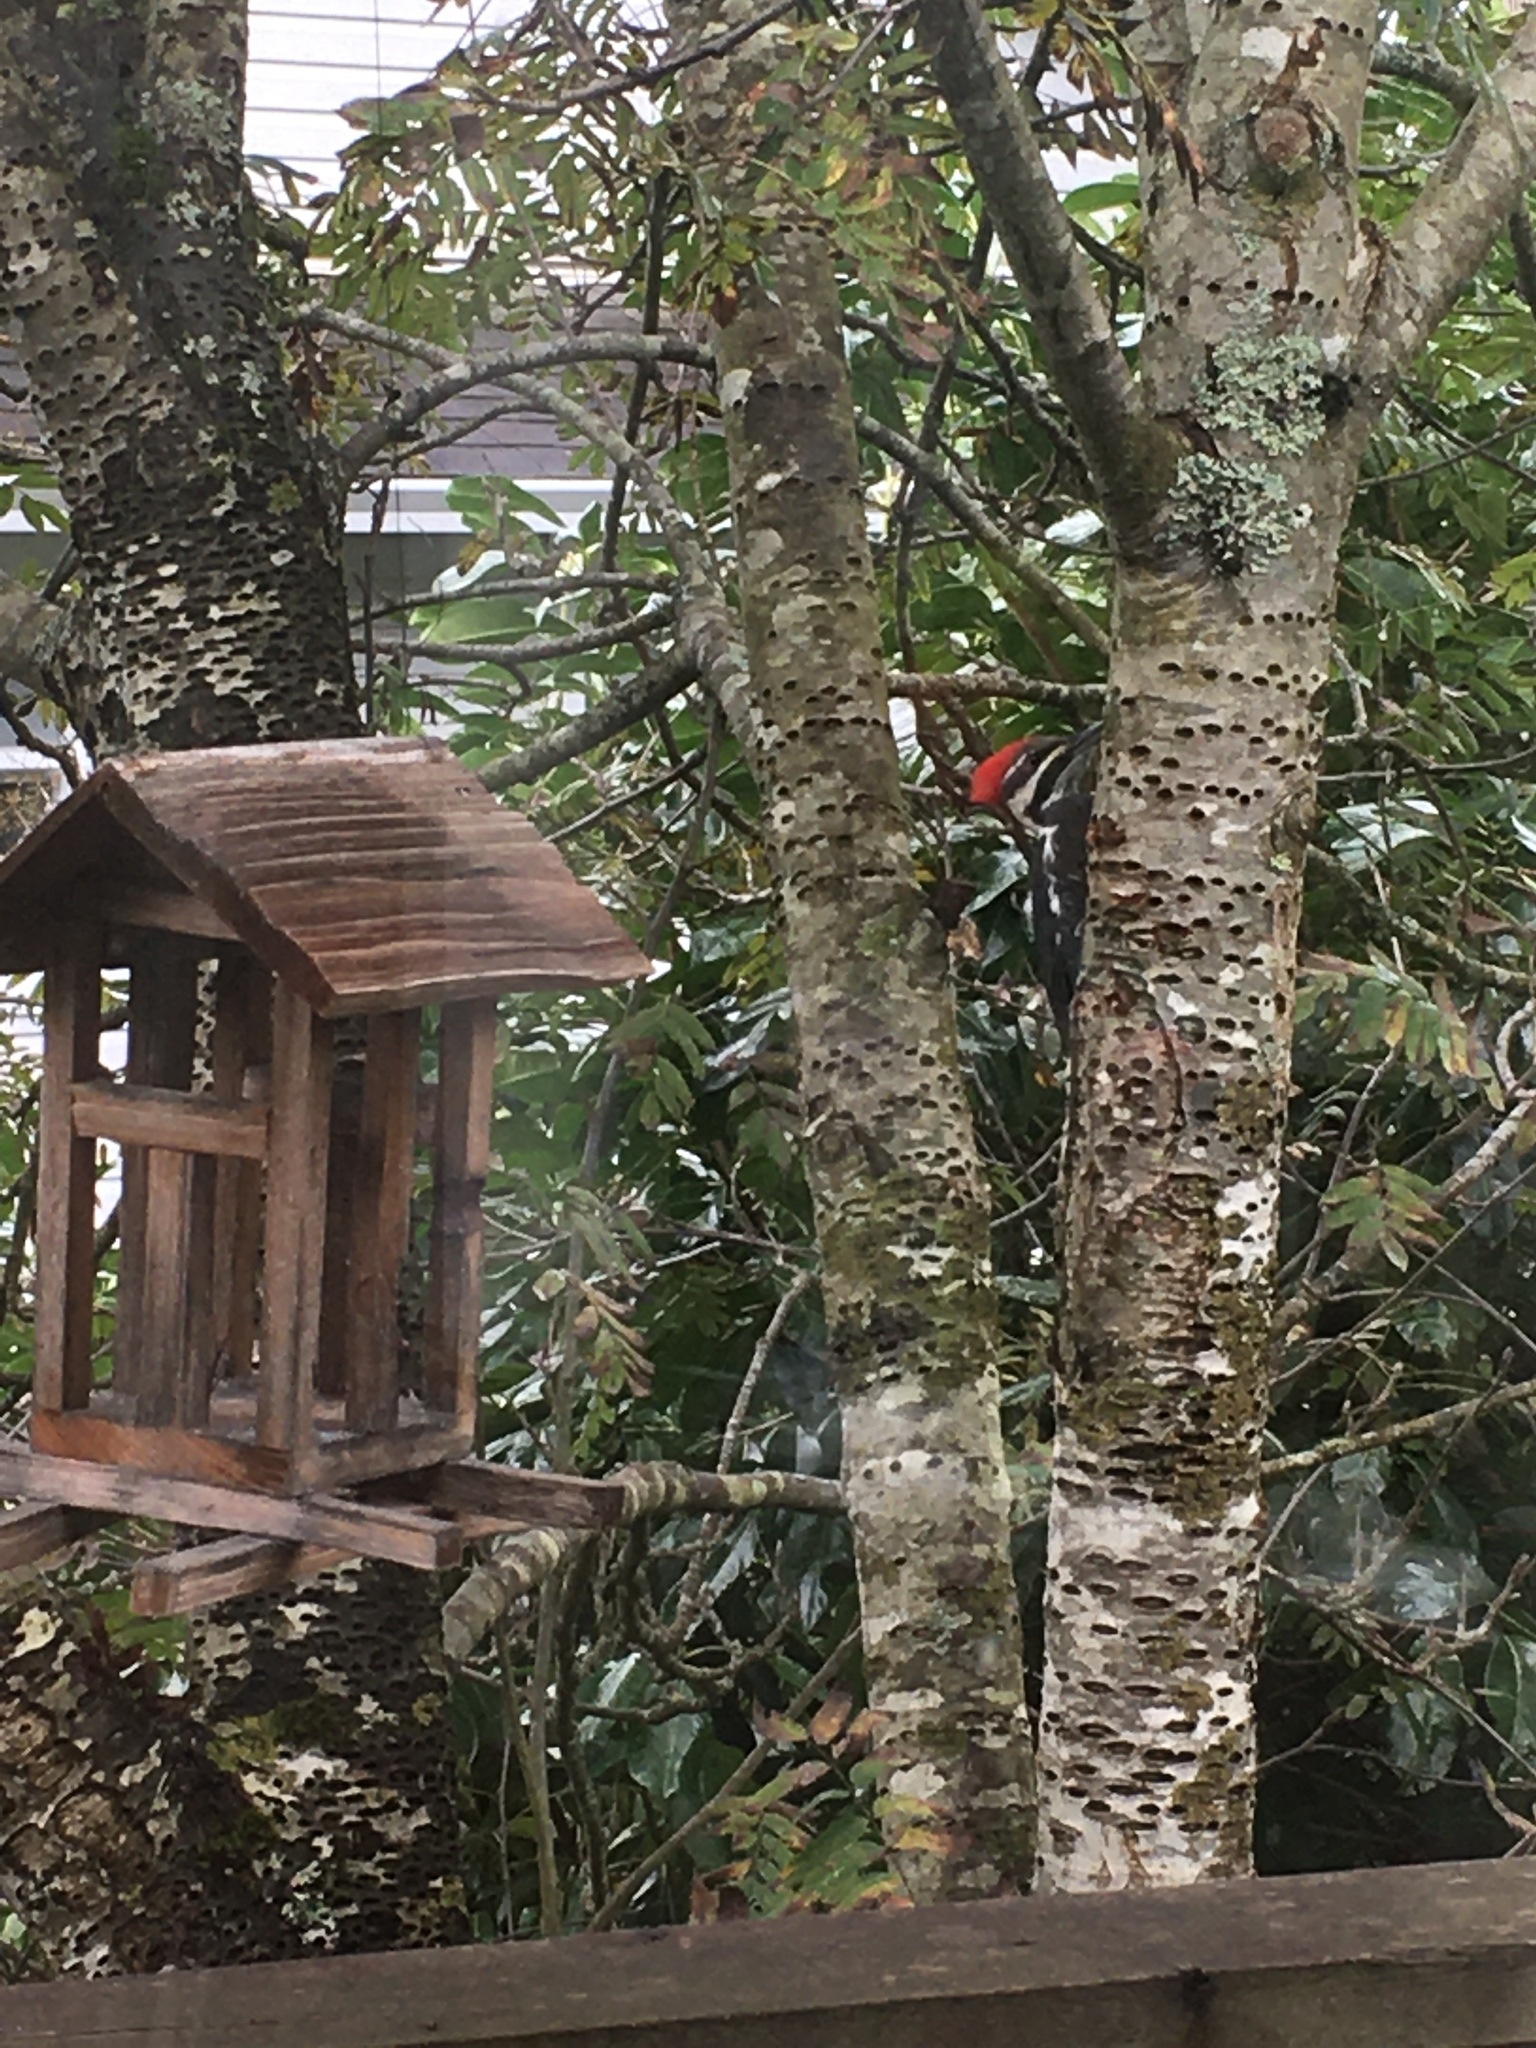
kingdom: Animalia
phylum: Chordata
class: Aves
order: Piciformes
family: Picidae
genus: Dryocopus
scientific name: Dryocopus pileatus
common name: Pileated woodpecker
